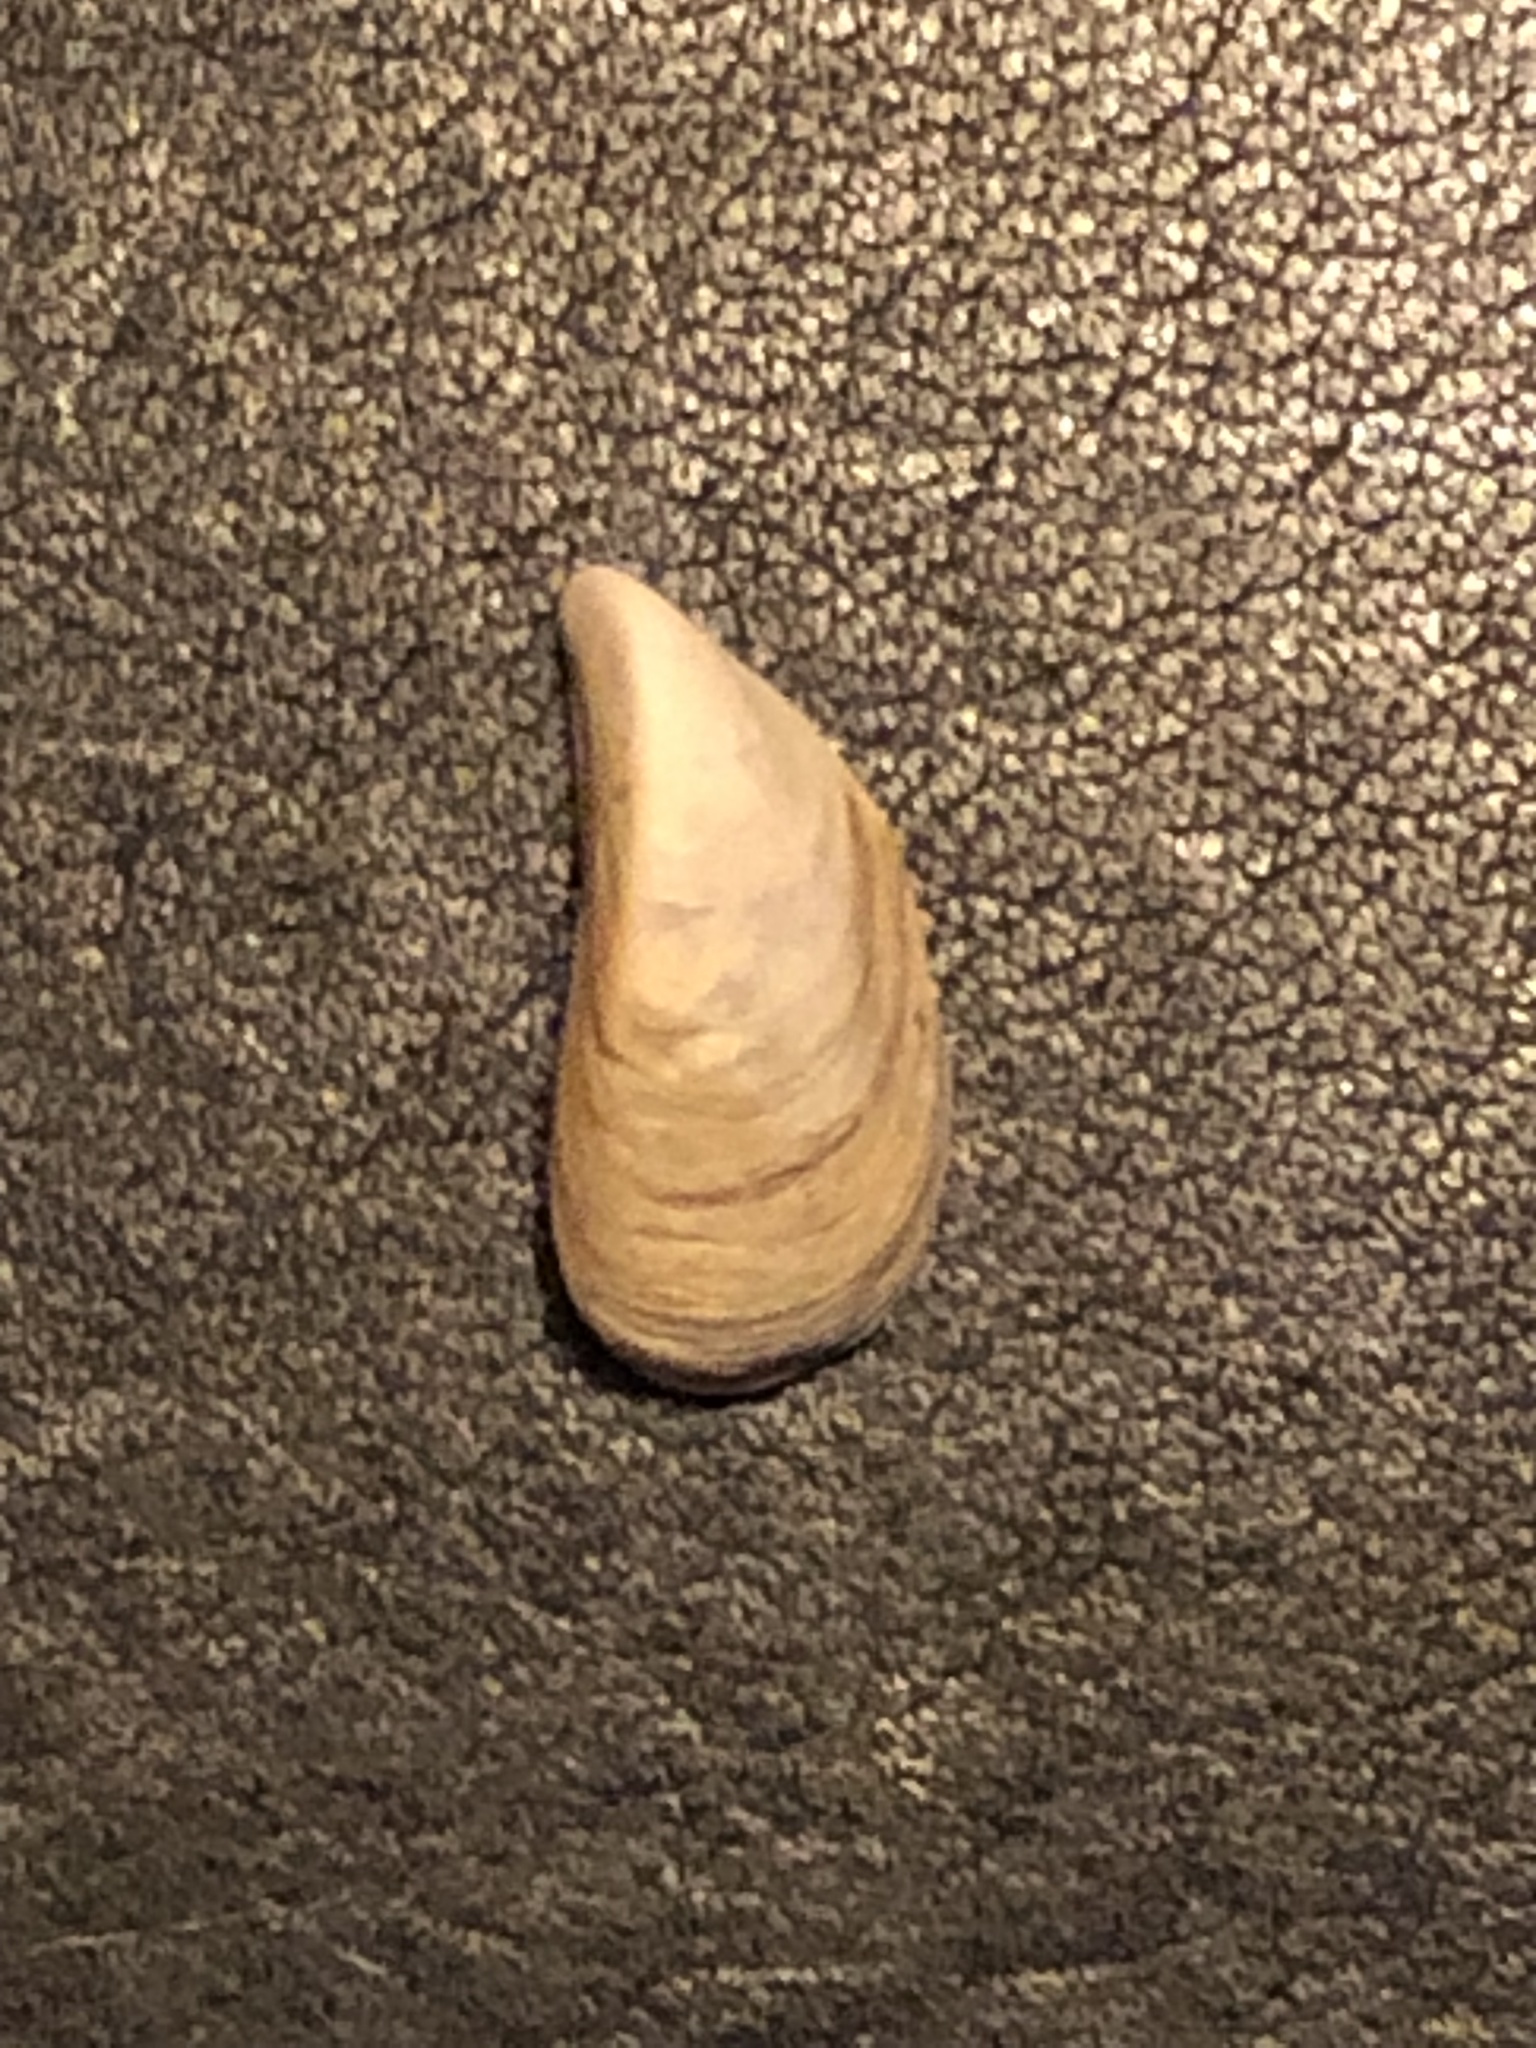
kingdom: Animalia
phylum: Mollusca
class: Bivalvia
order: Myida
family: Dreissenidae
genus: Dreissena
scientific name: Dreissena polymorpha
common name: Zebra mussel
